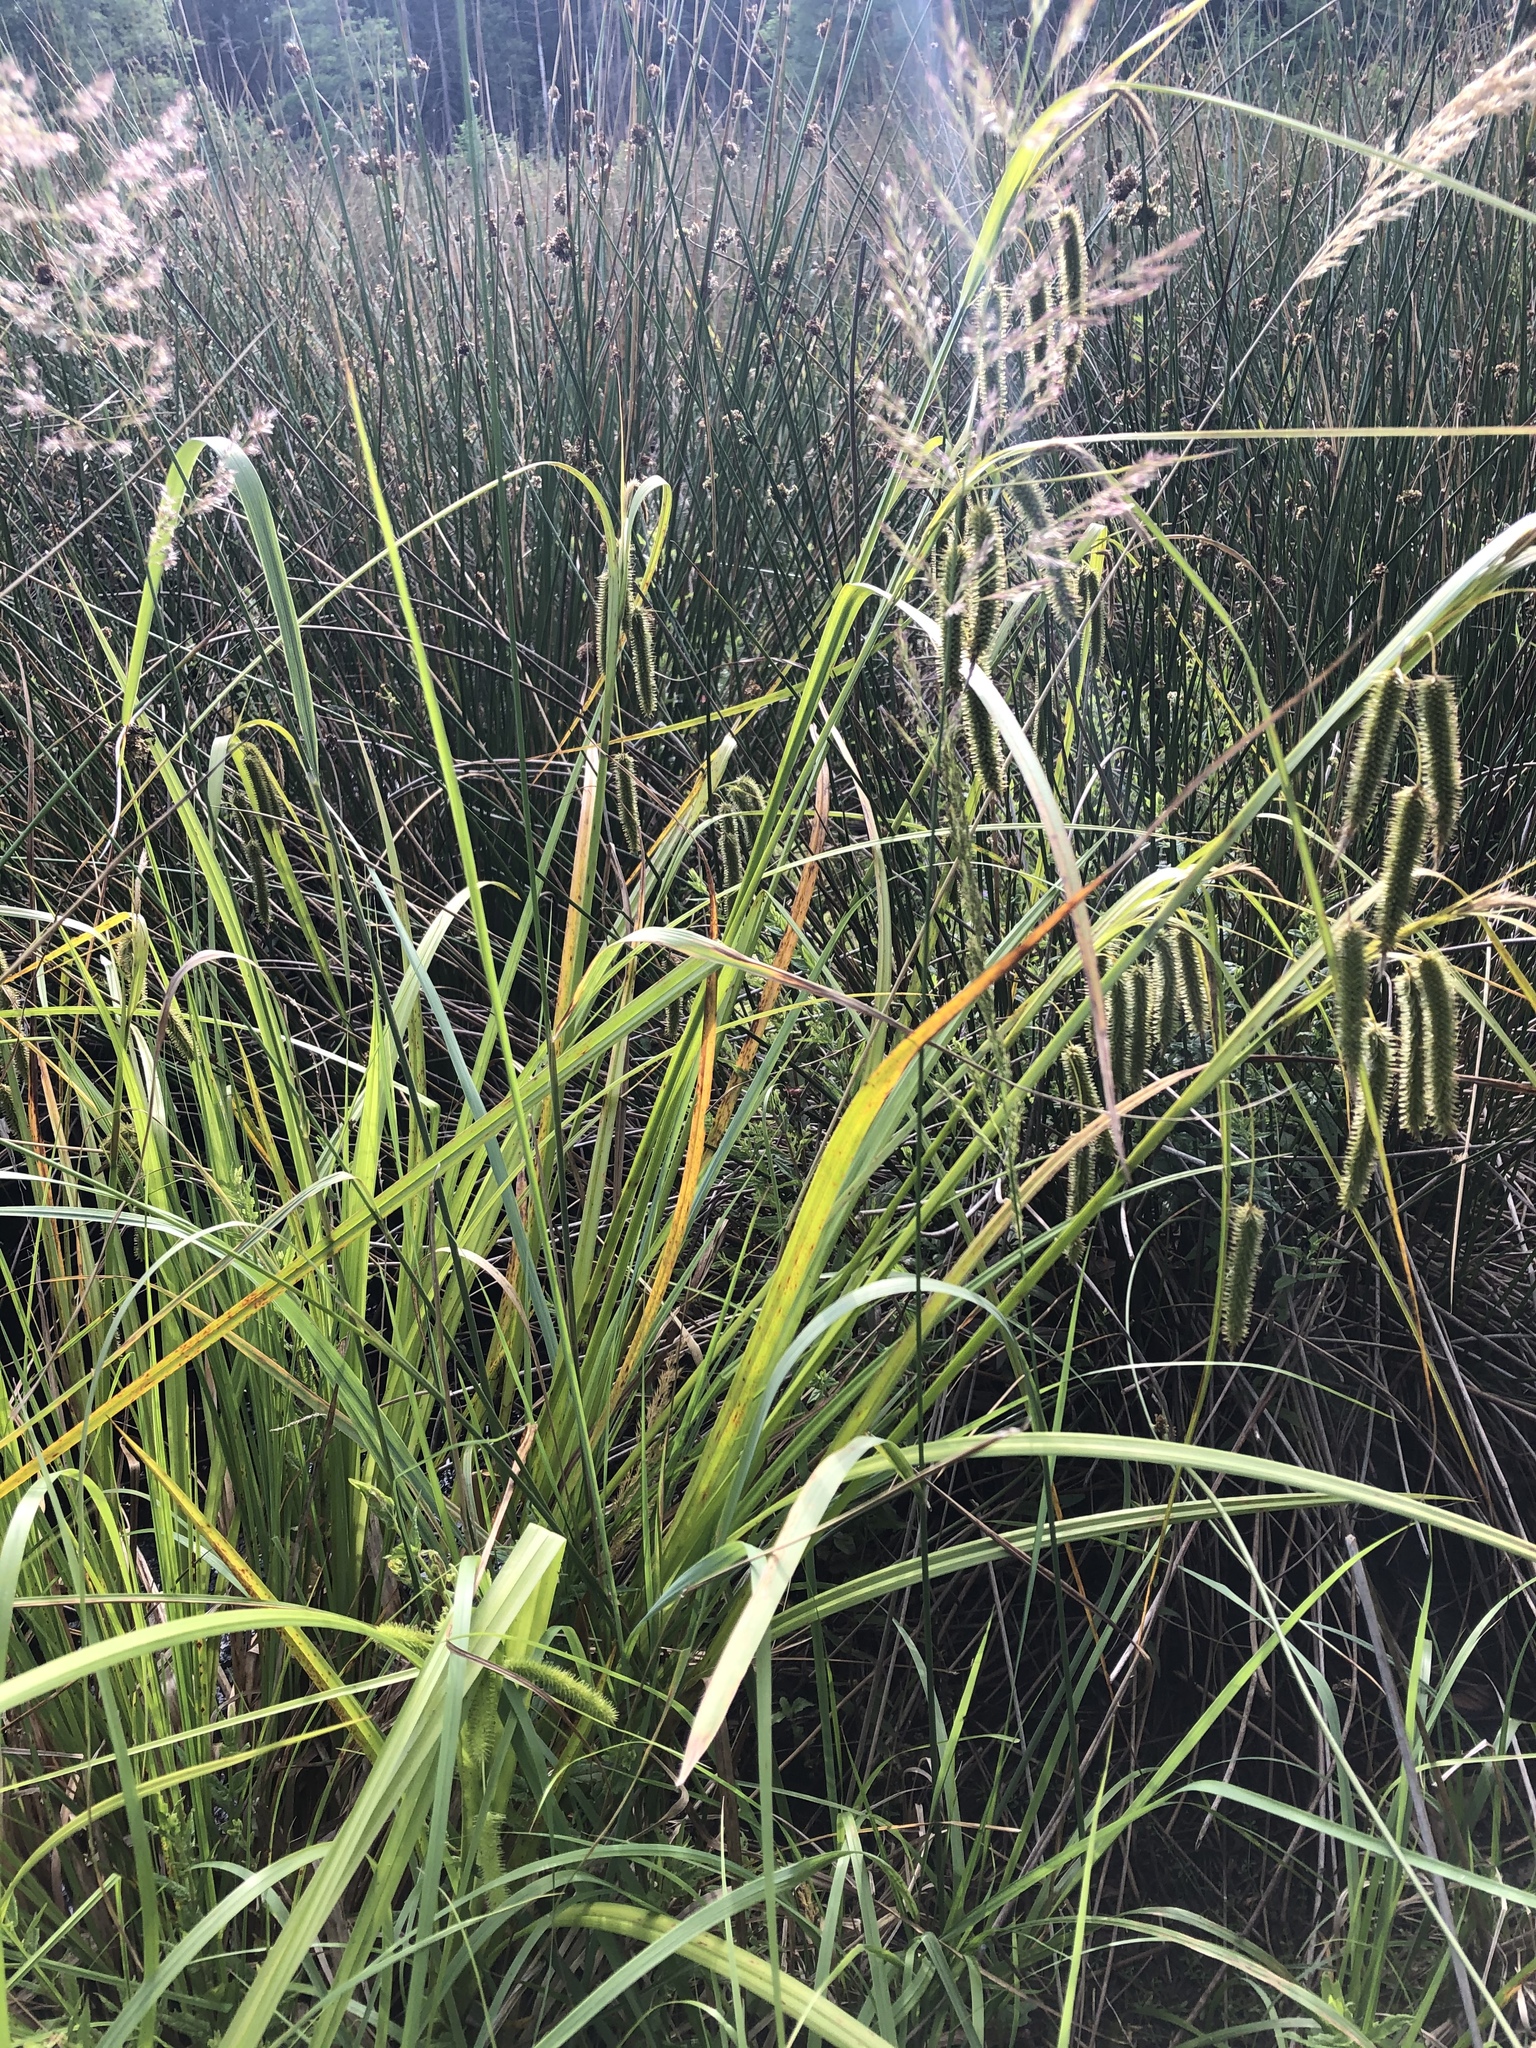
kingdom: Plantae
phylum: Tracheophyta
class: Liliopsida
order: Poales
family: Cyperaceae
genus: Carex
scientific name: Carex pseudocyperus
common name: Cyperus sedge
